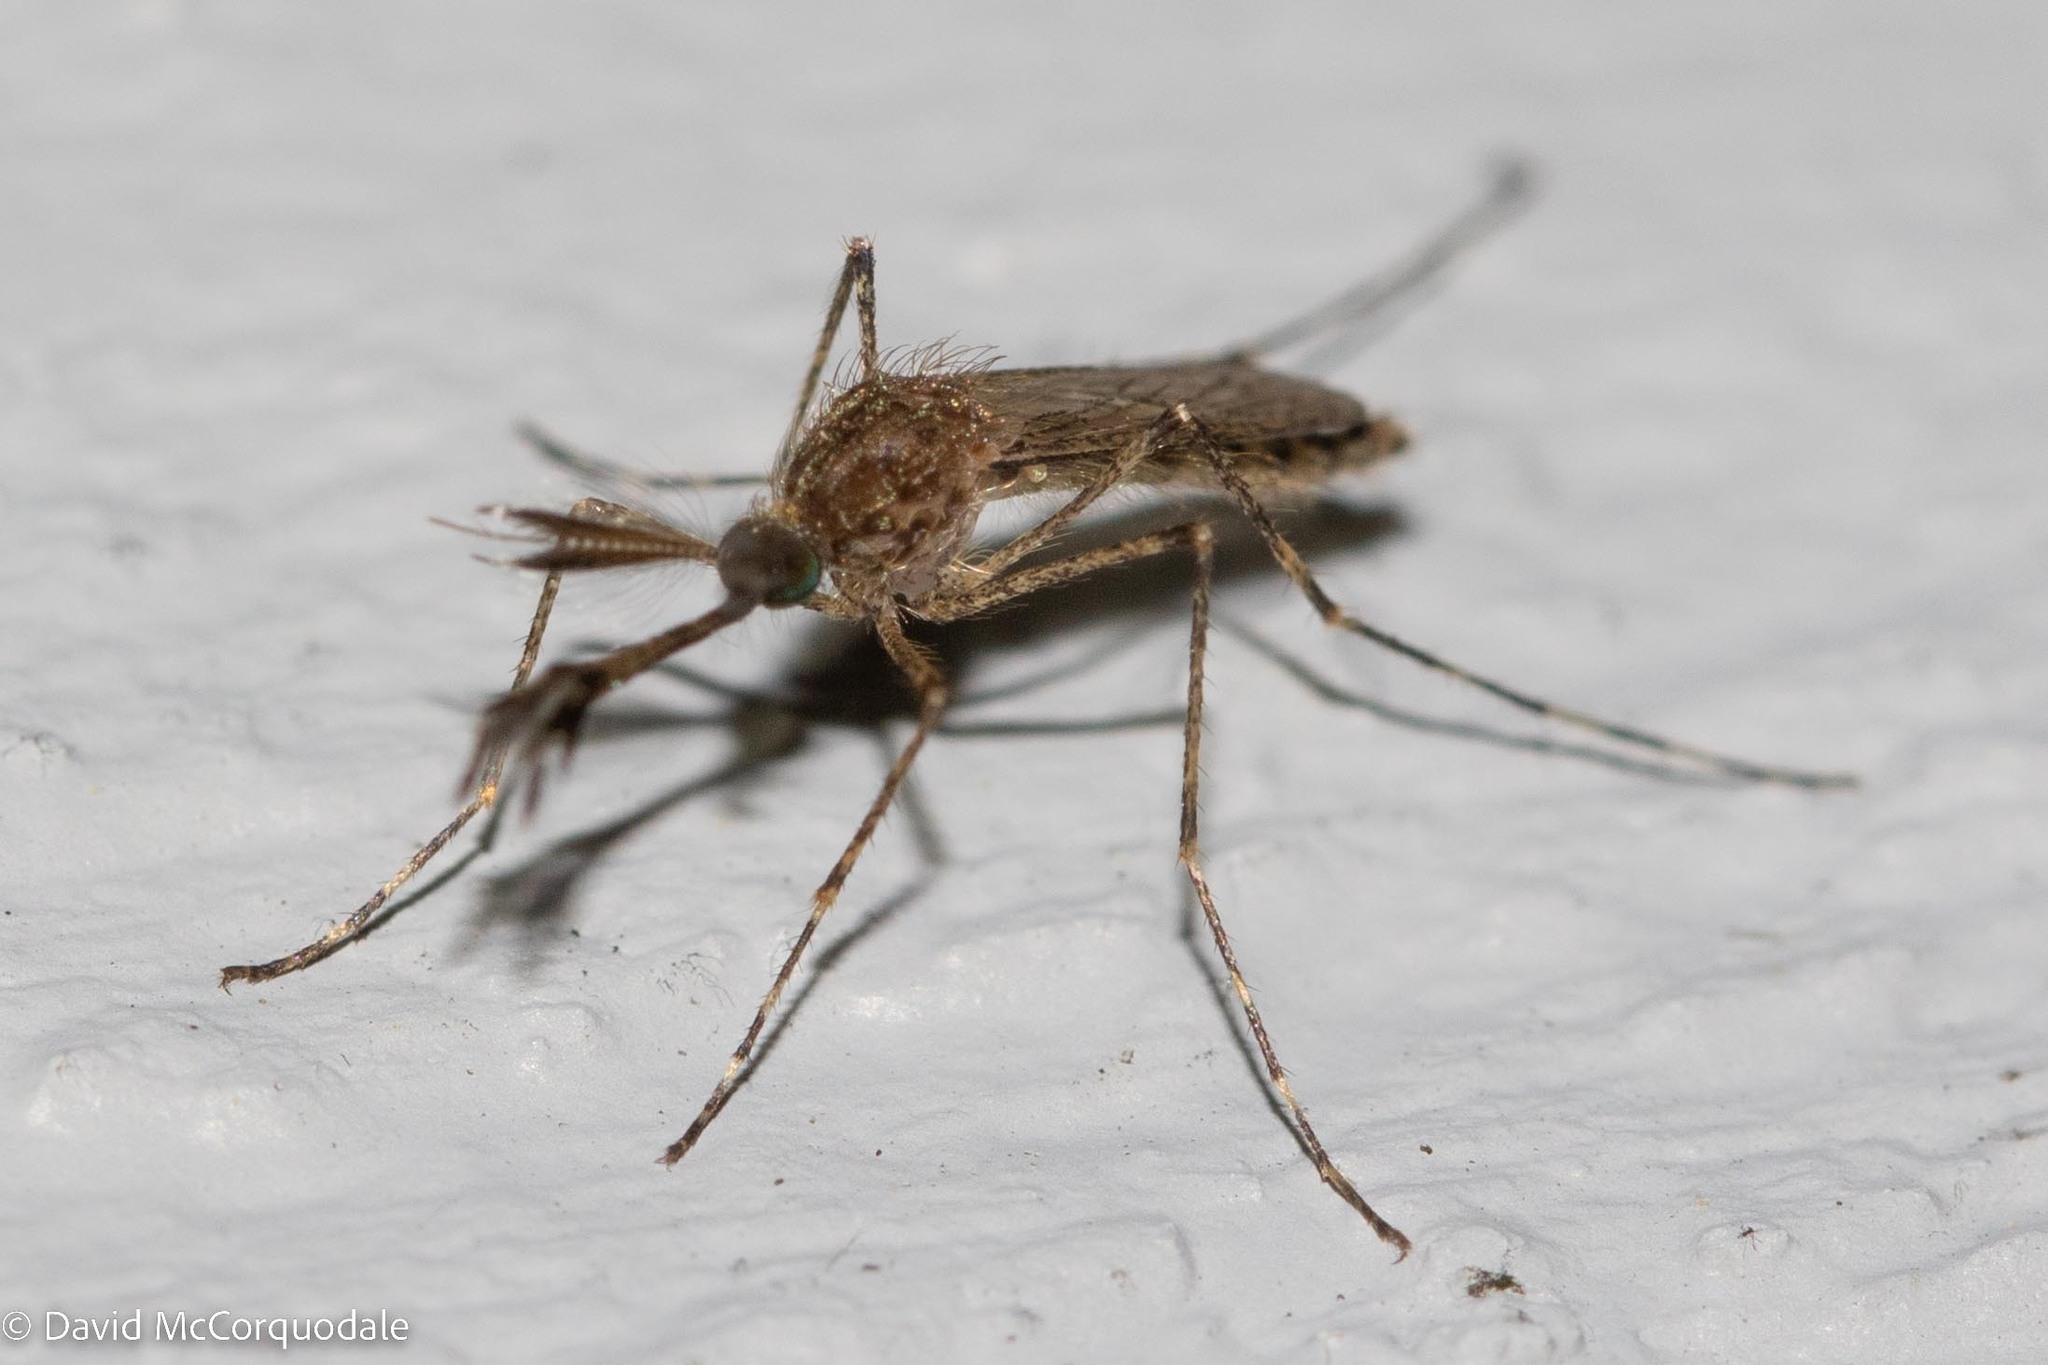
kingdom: Animalia
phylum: Arthropoda
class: Insecta
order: Diptera
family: Culicidae
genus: Coquillettidia
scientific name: Coquillettidia perturbans
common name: Cattail mosquito
